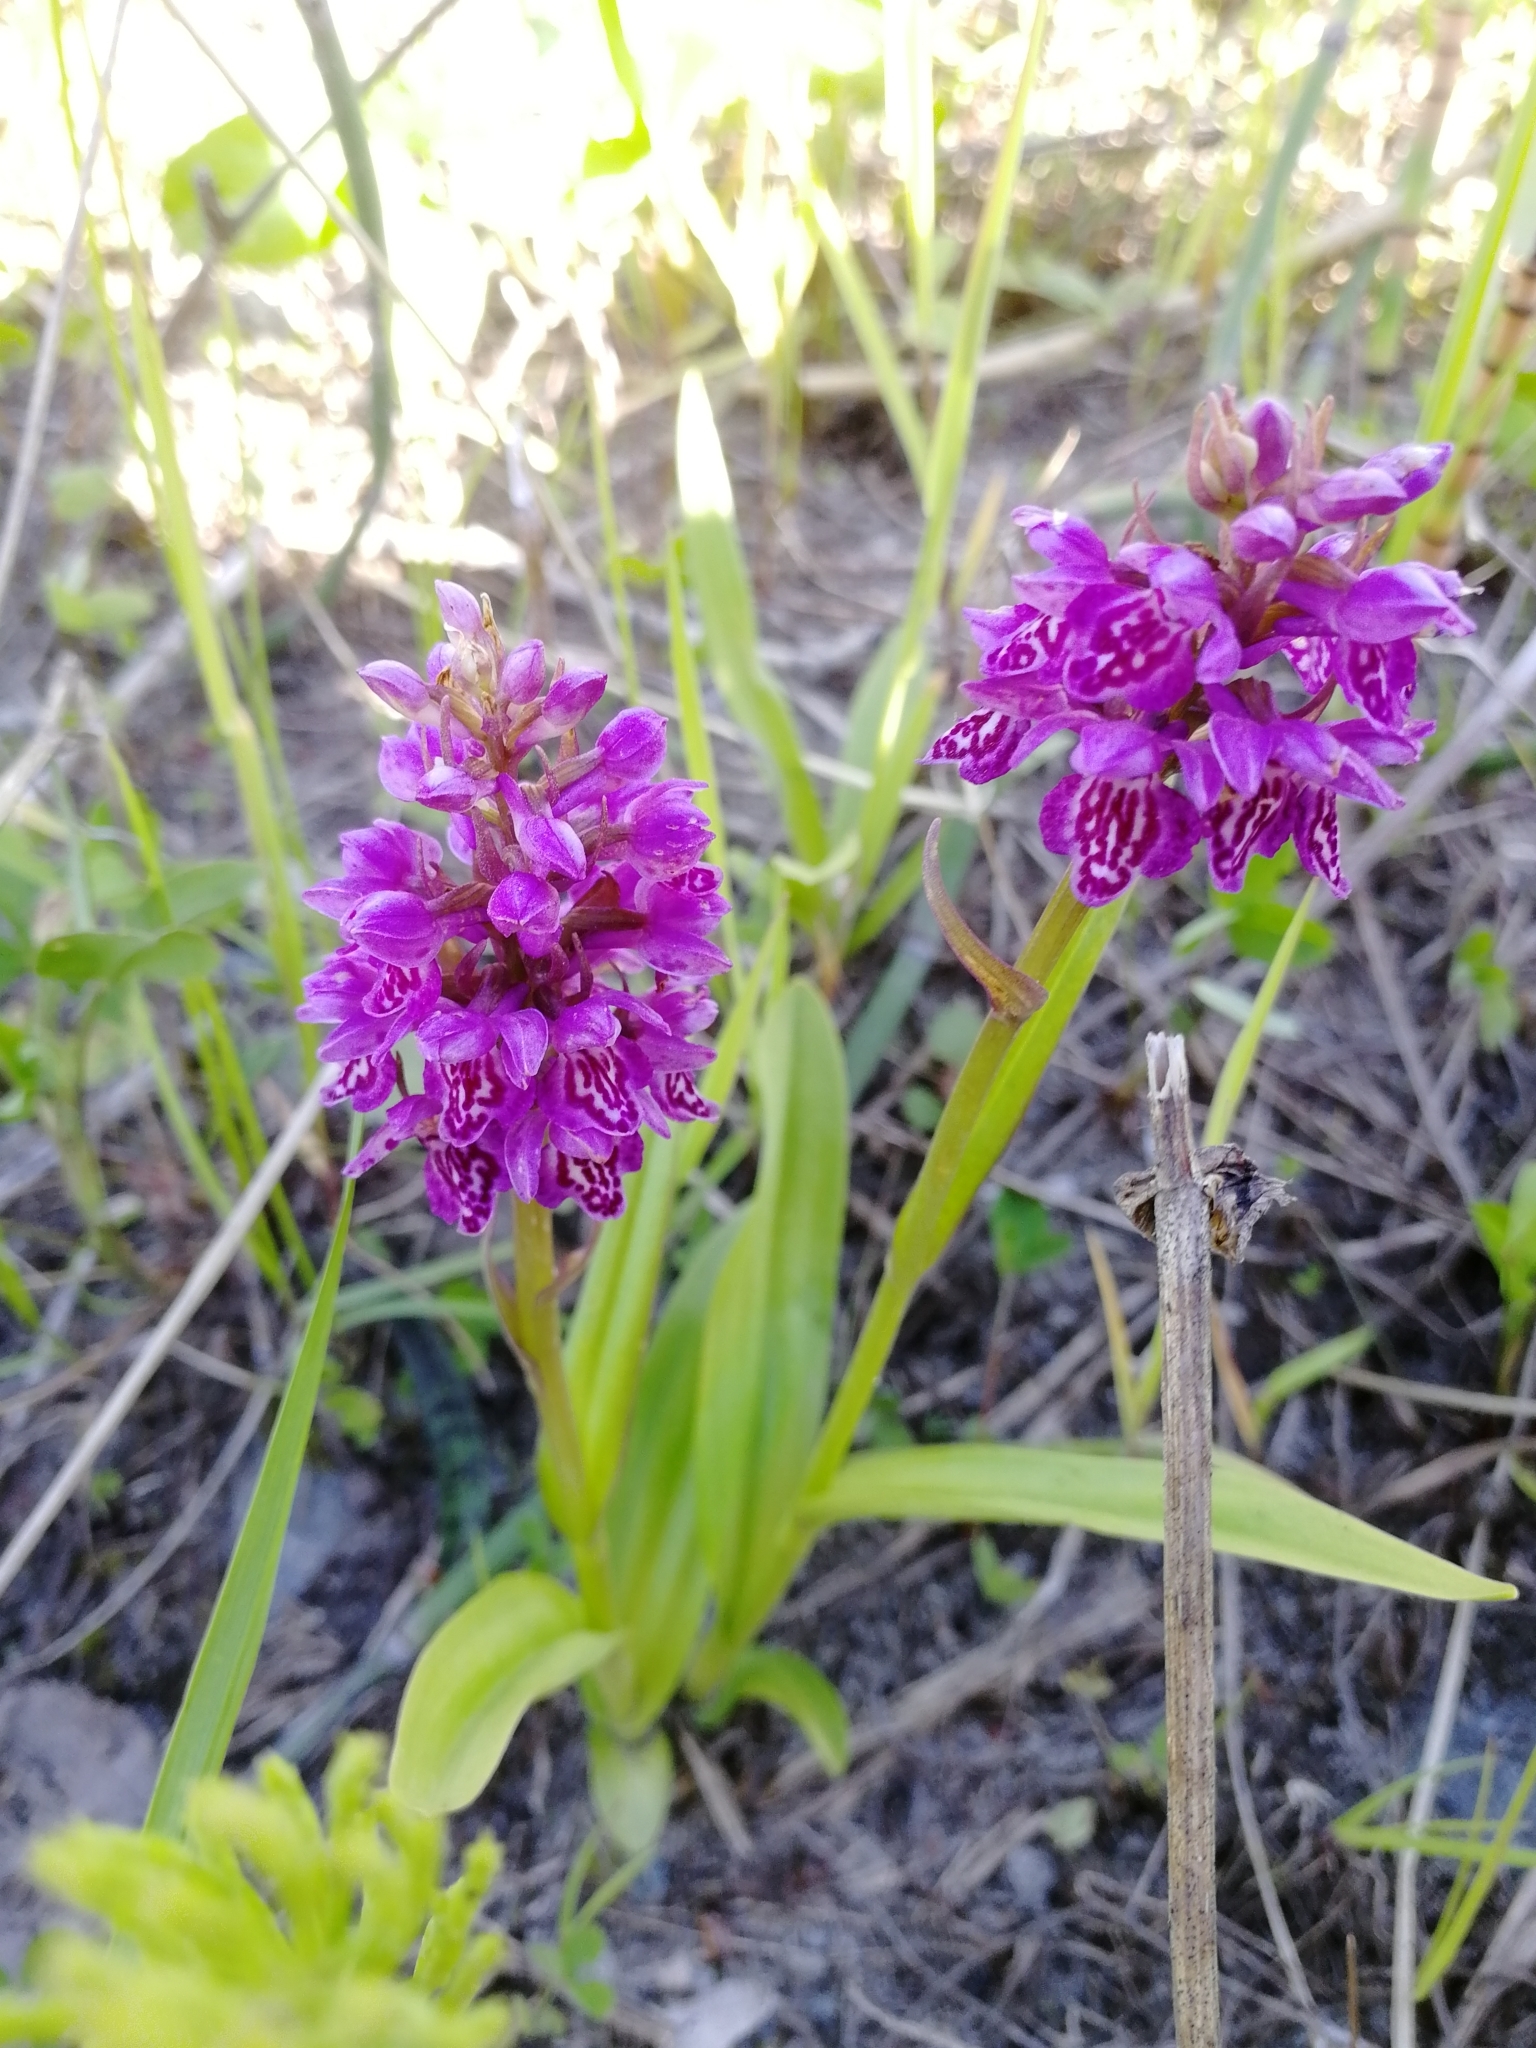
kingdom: Plantae
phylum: Tracheophyta
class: Liliopsida
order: Asparagales
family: Orchidaceae
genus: Dactylorhiza
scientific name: Dactylorhiza incarnata
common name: Early marsh-orchid
